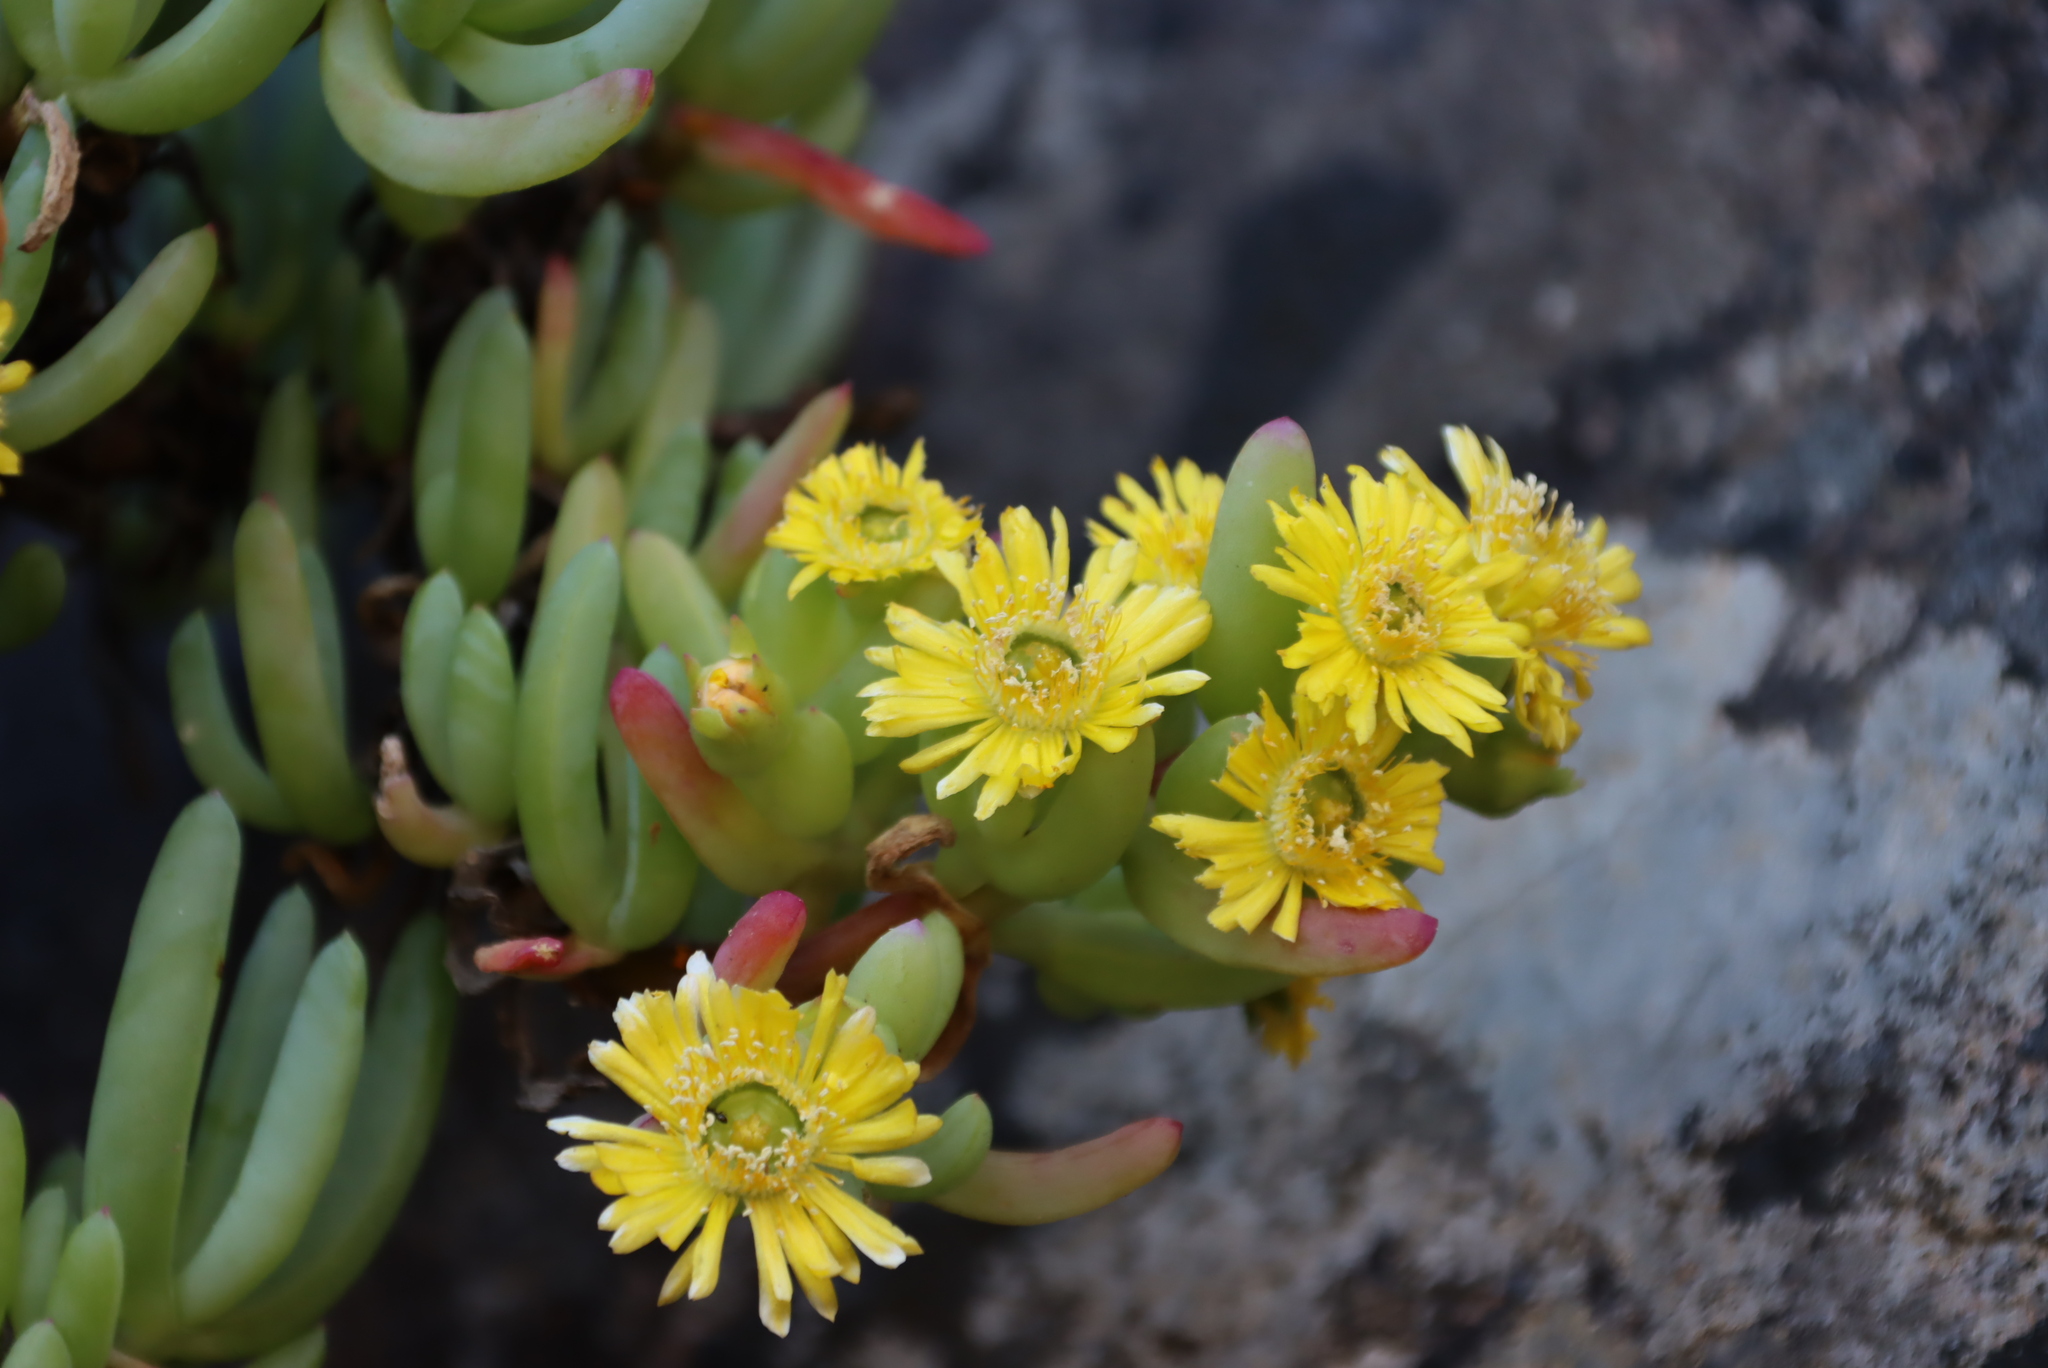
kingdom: Plantae
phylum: Tracheophyta
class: Magnoliopsida
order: Caryophyllales
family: Aizoaceae
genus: Scopelogena
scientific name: Scopelogena verruculata
